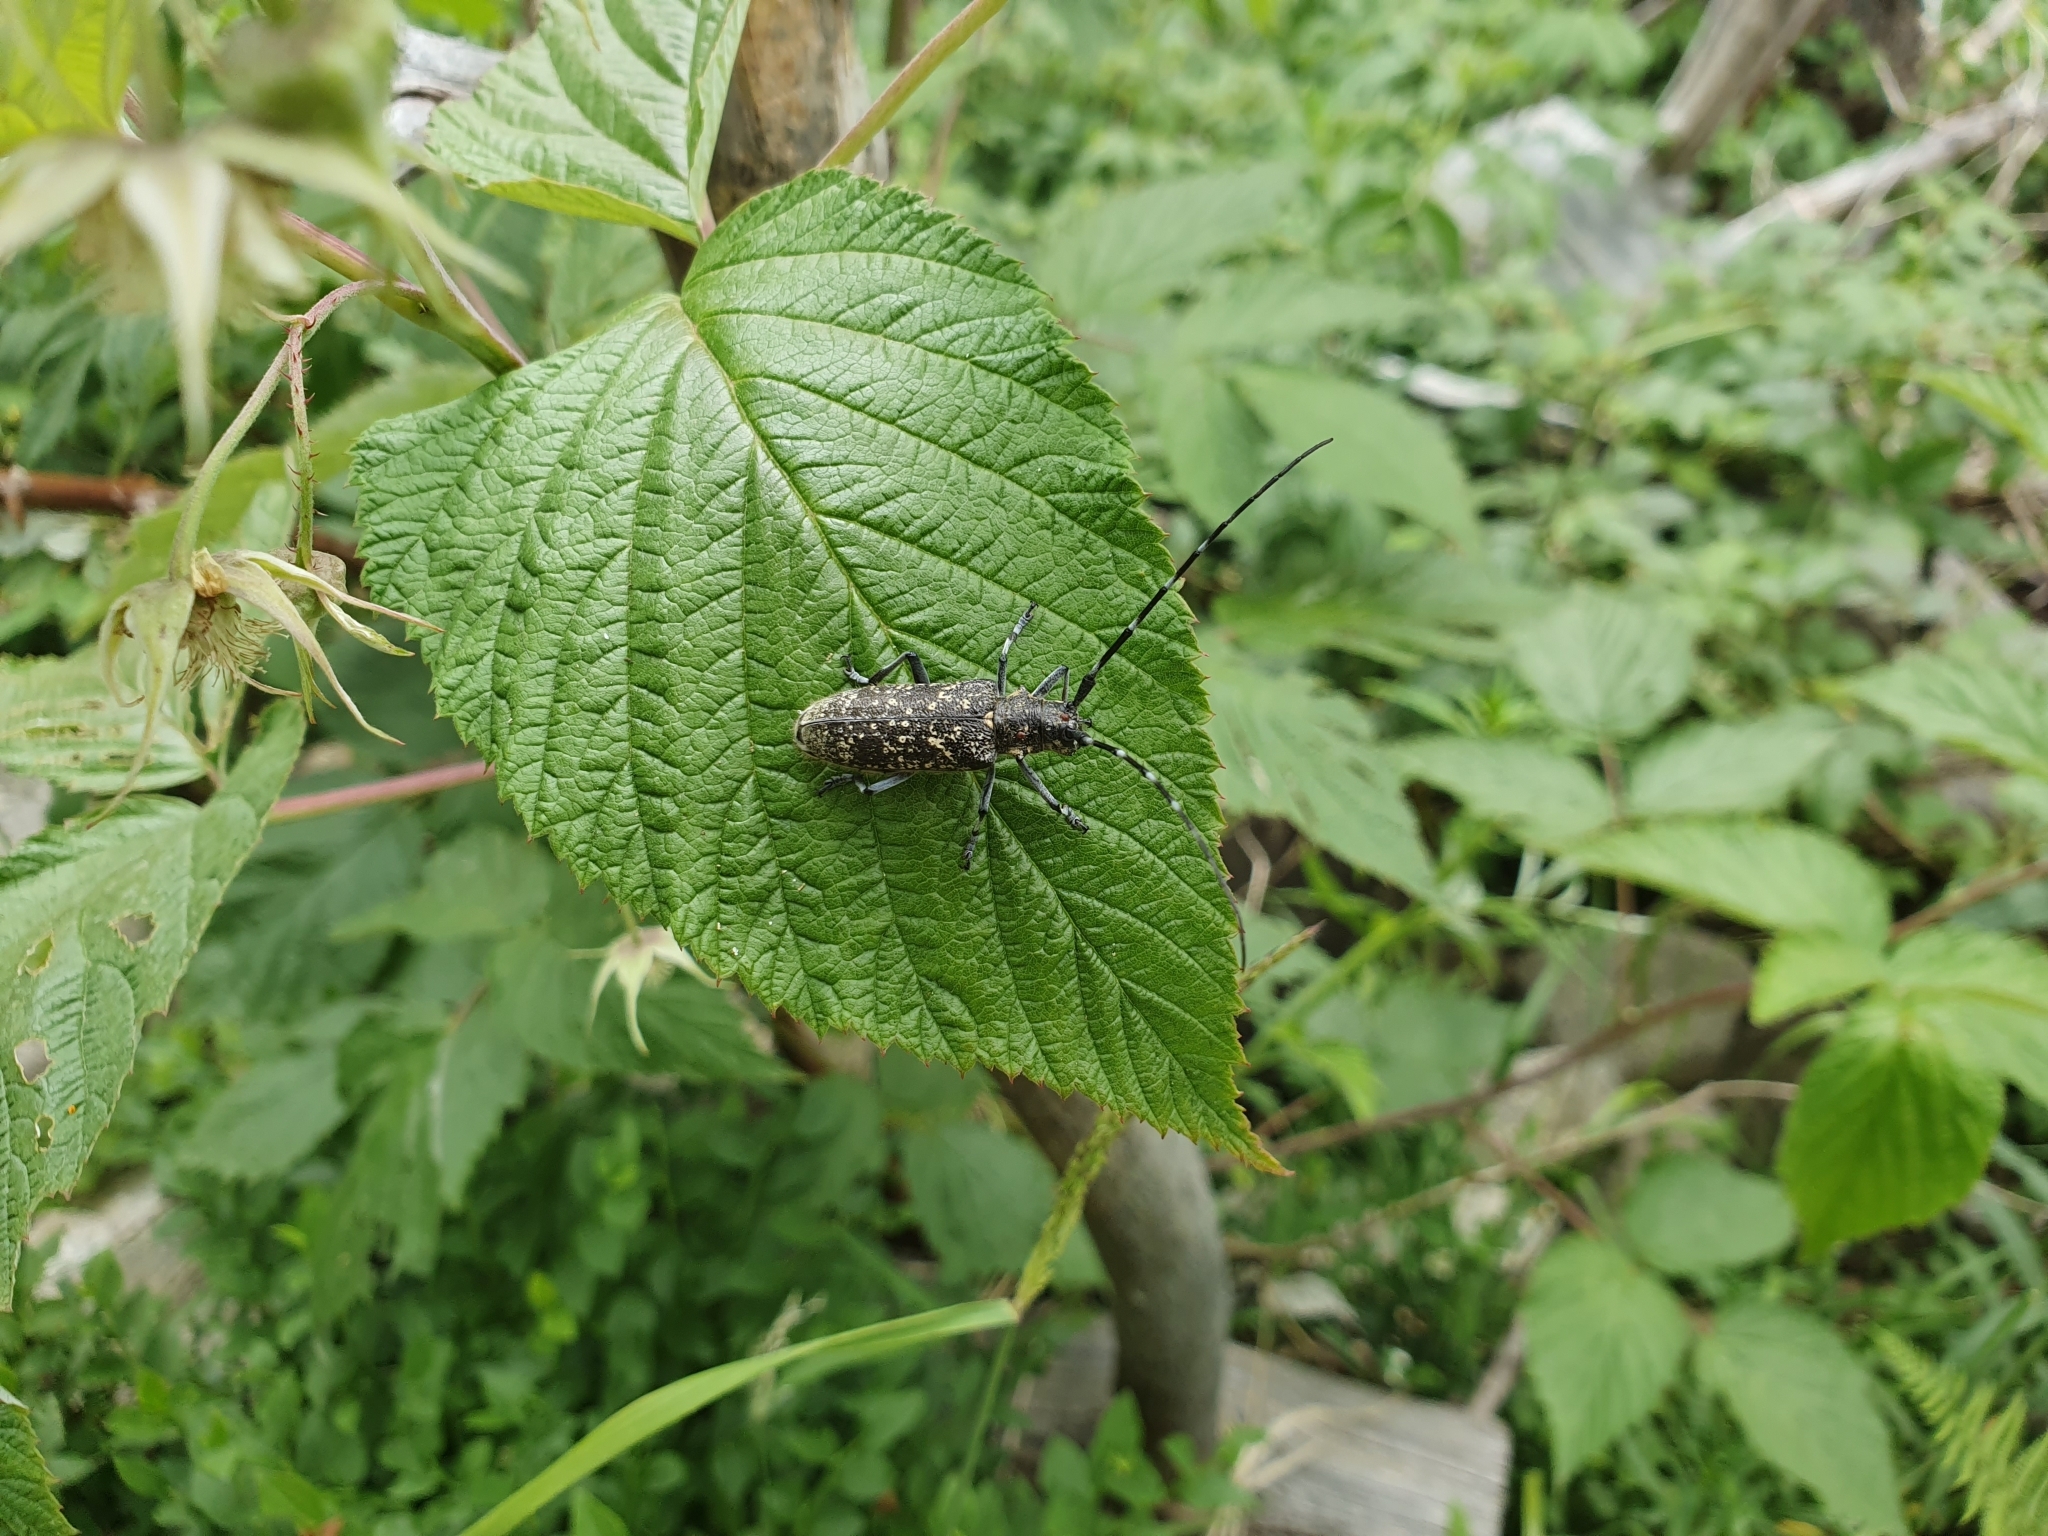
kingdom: Animalia
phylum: Arthropoda
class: Insecta
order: Coleoptera
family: Cerambycidae
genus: Monochamus
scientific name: Monochamus sutor
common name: Pine sawyer
